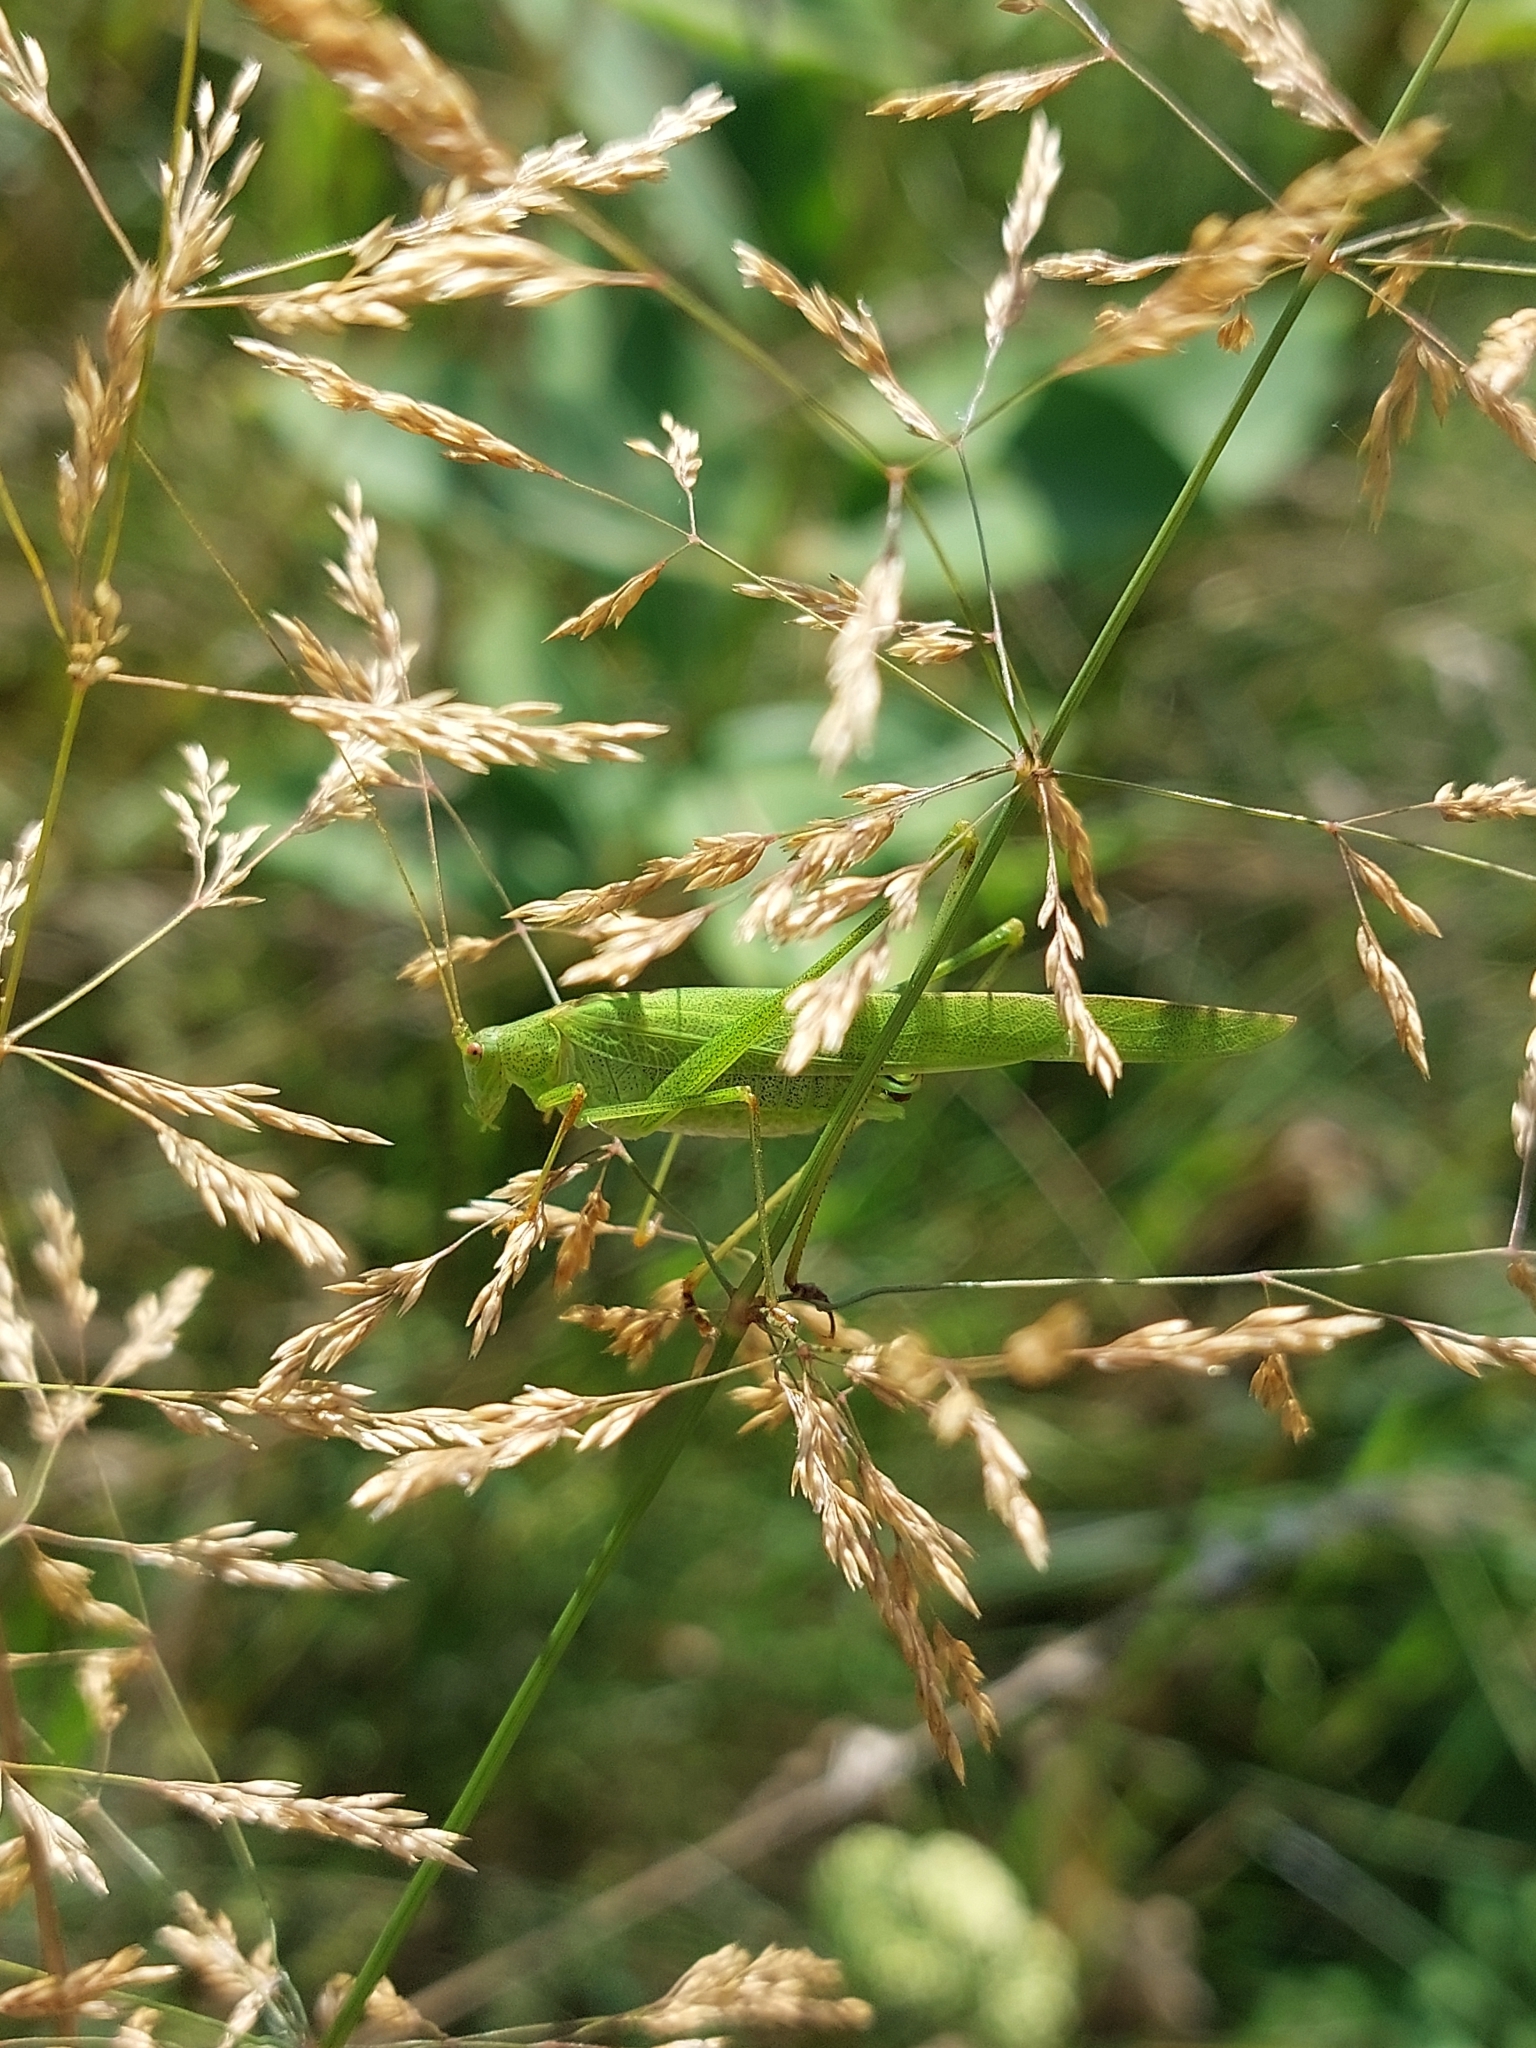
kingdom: Animalia
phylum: Arthropoda
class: Insecta
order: Orthoptera
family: Tettigoniidae
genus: Phaneroptera
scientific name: Phaneroptera falcata
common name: Sickle-bearing bush-cricket
